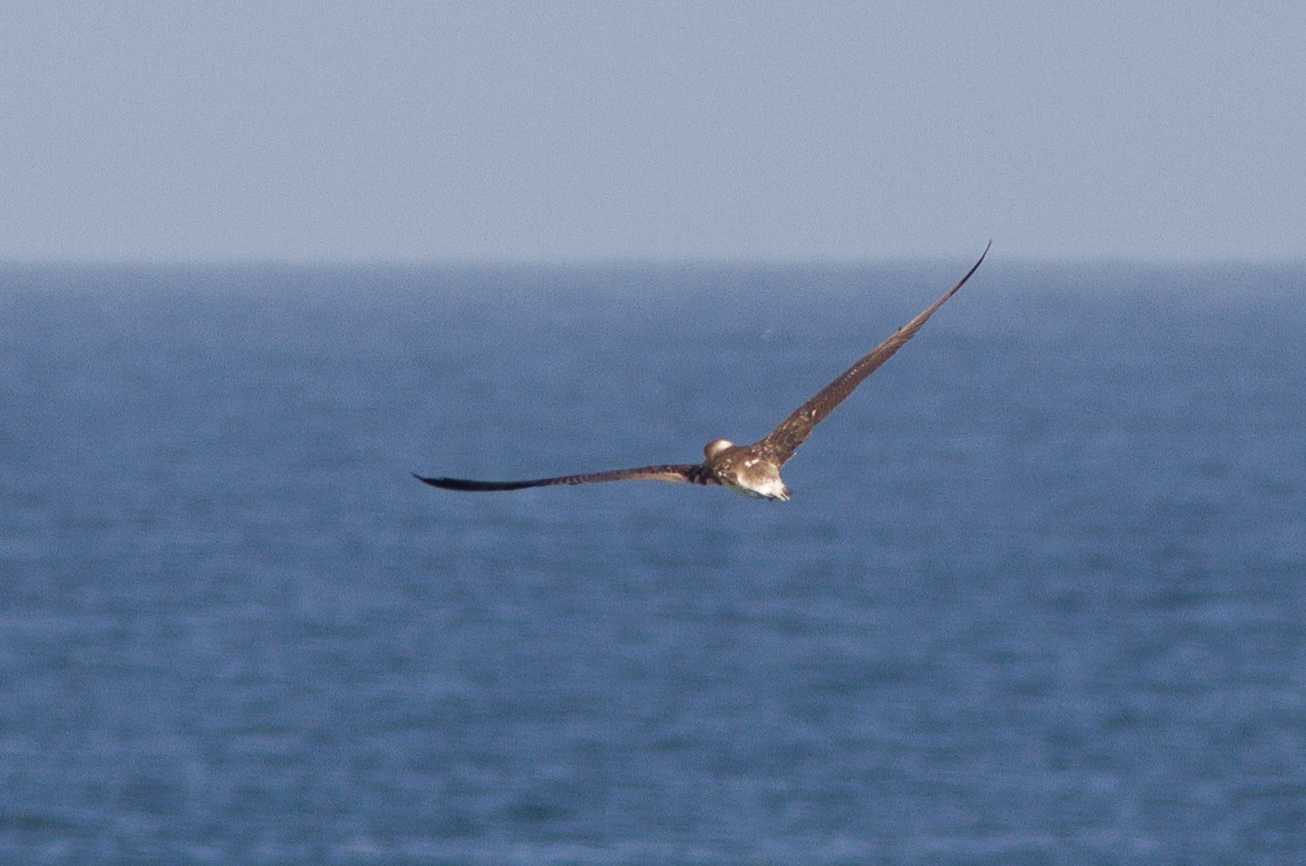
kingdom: Animalia
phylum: Chordata
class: Aves
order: Suliformes
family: Sulidae
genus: Sula
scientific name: Sula nebouxii
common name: Blue-footed booby
